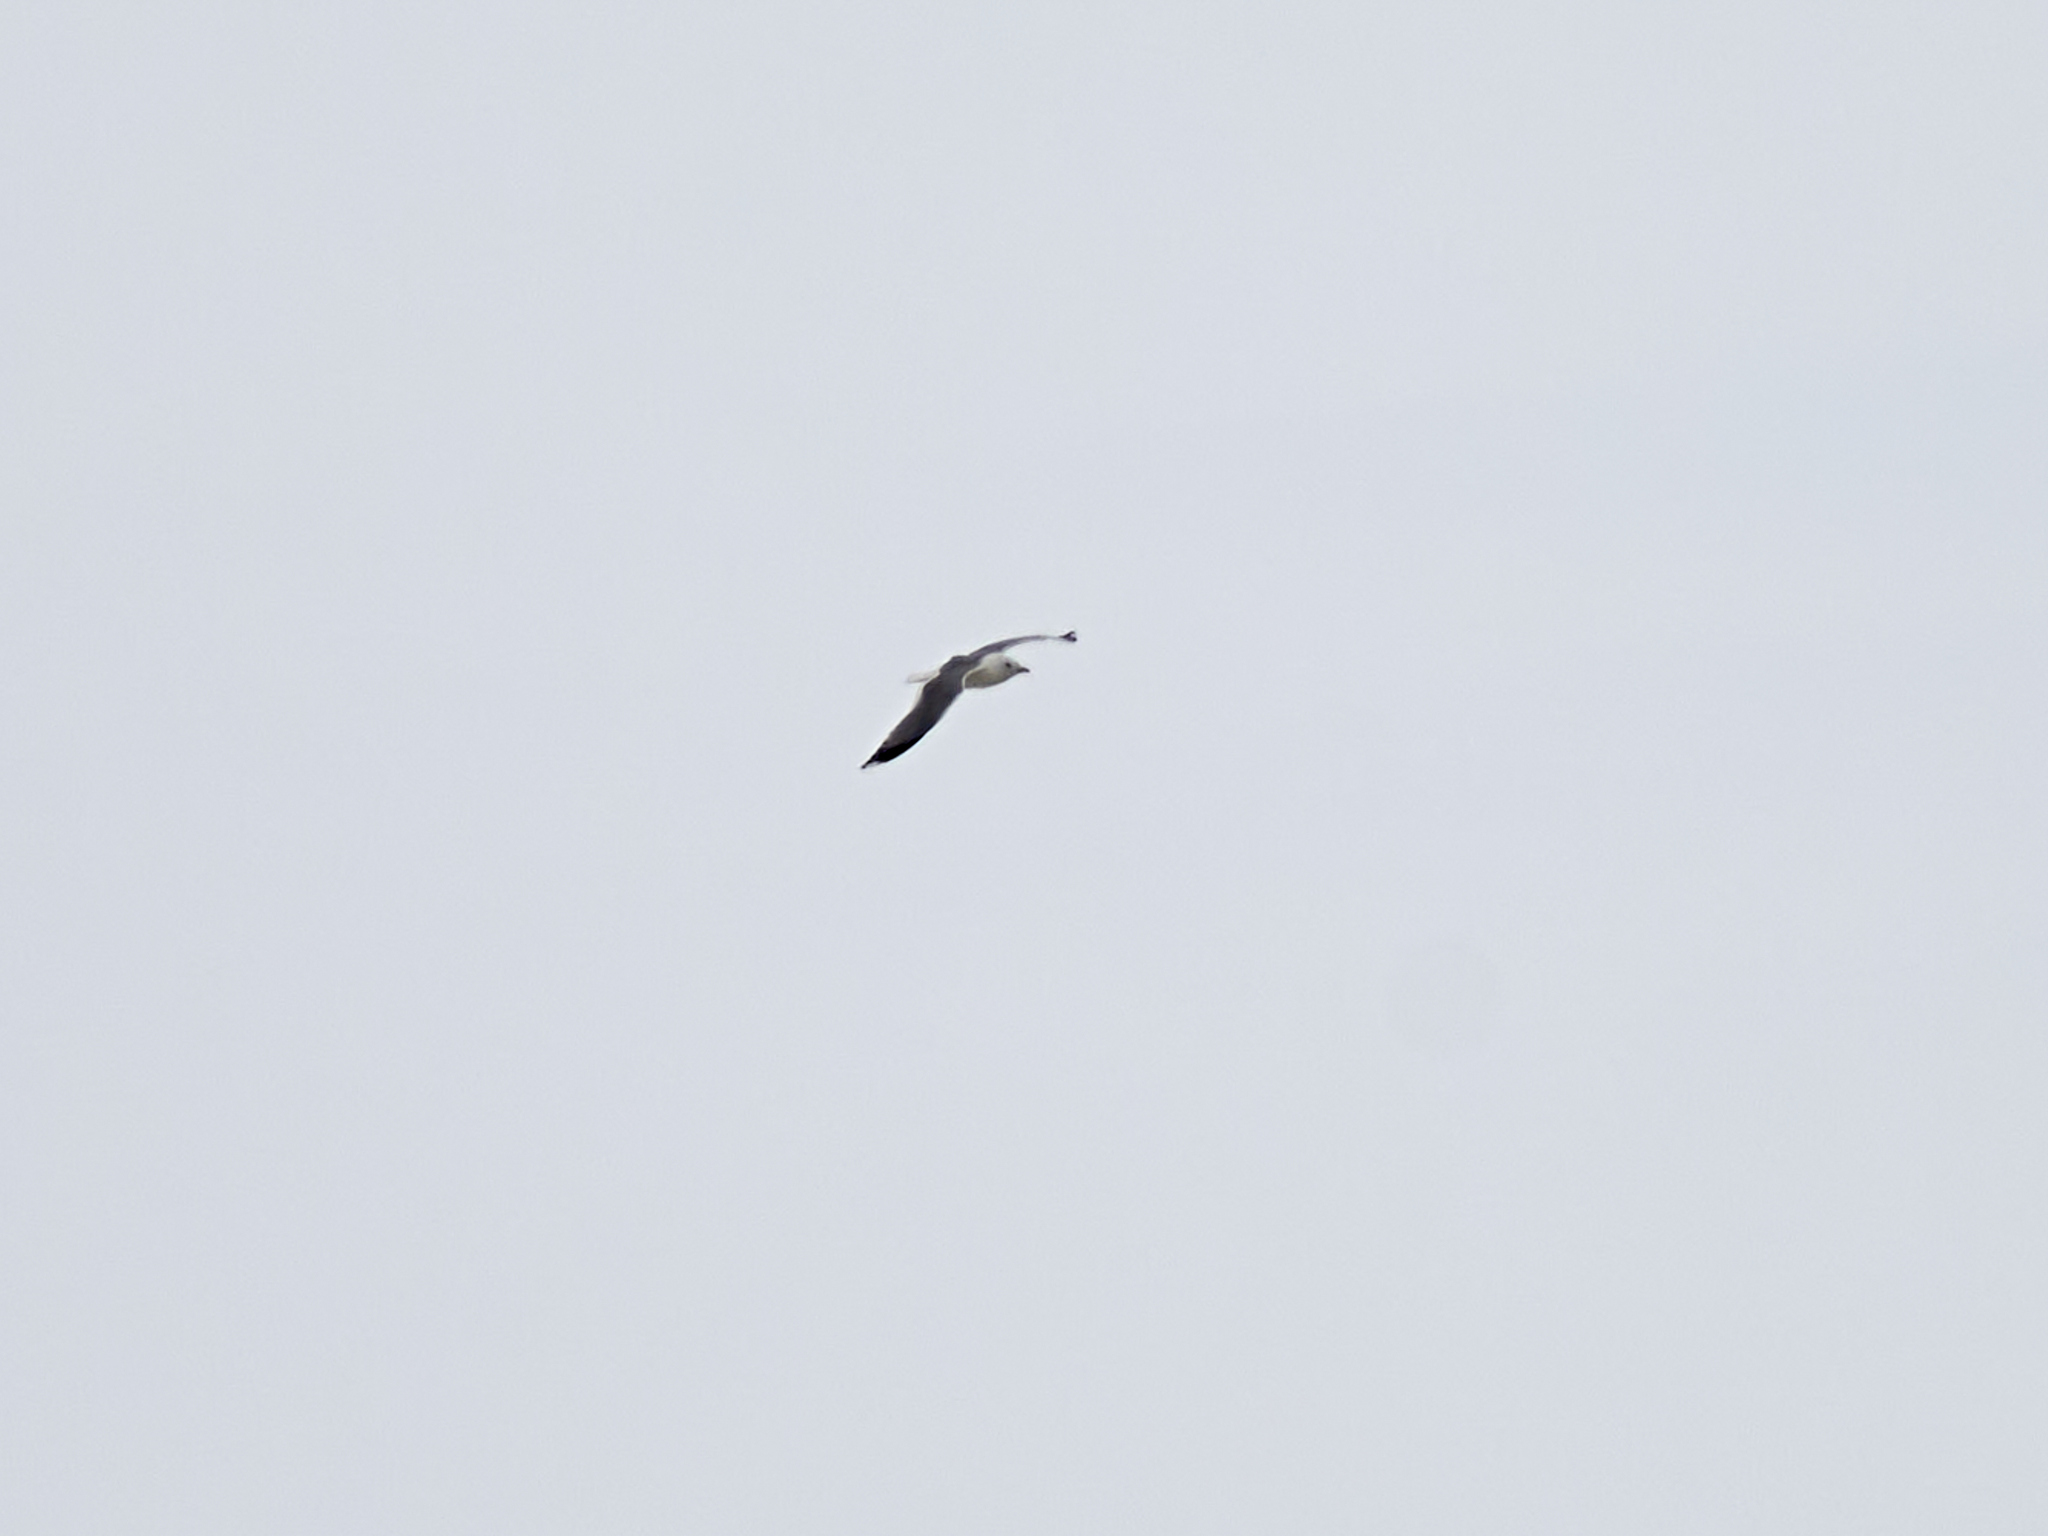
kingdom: Animalia
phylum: Chordata
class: Aves
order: Charadriiformes
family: Laridae
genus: Larus
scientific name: Larus canus
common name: Mew gull
